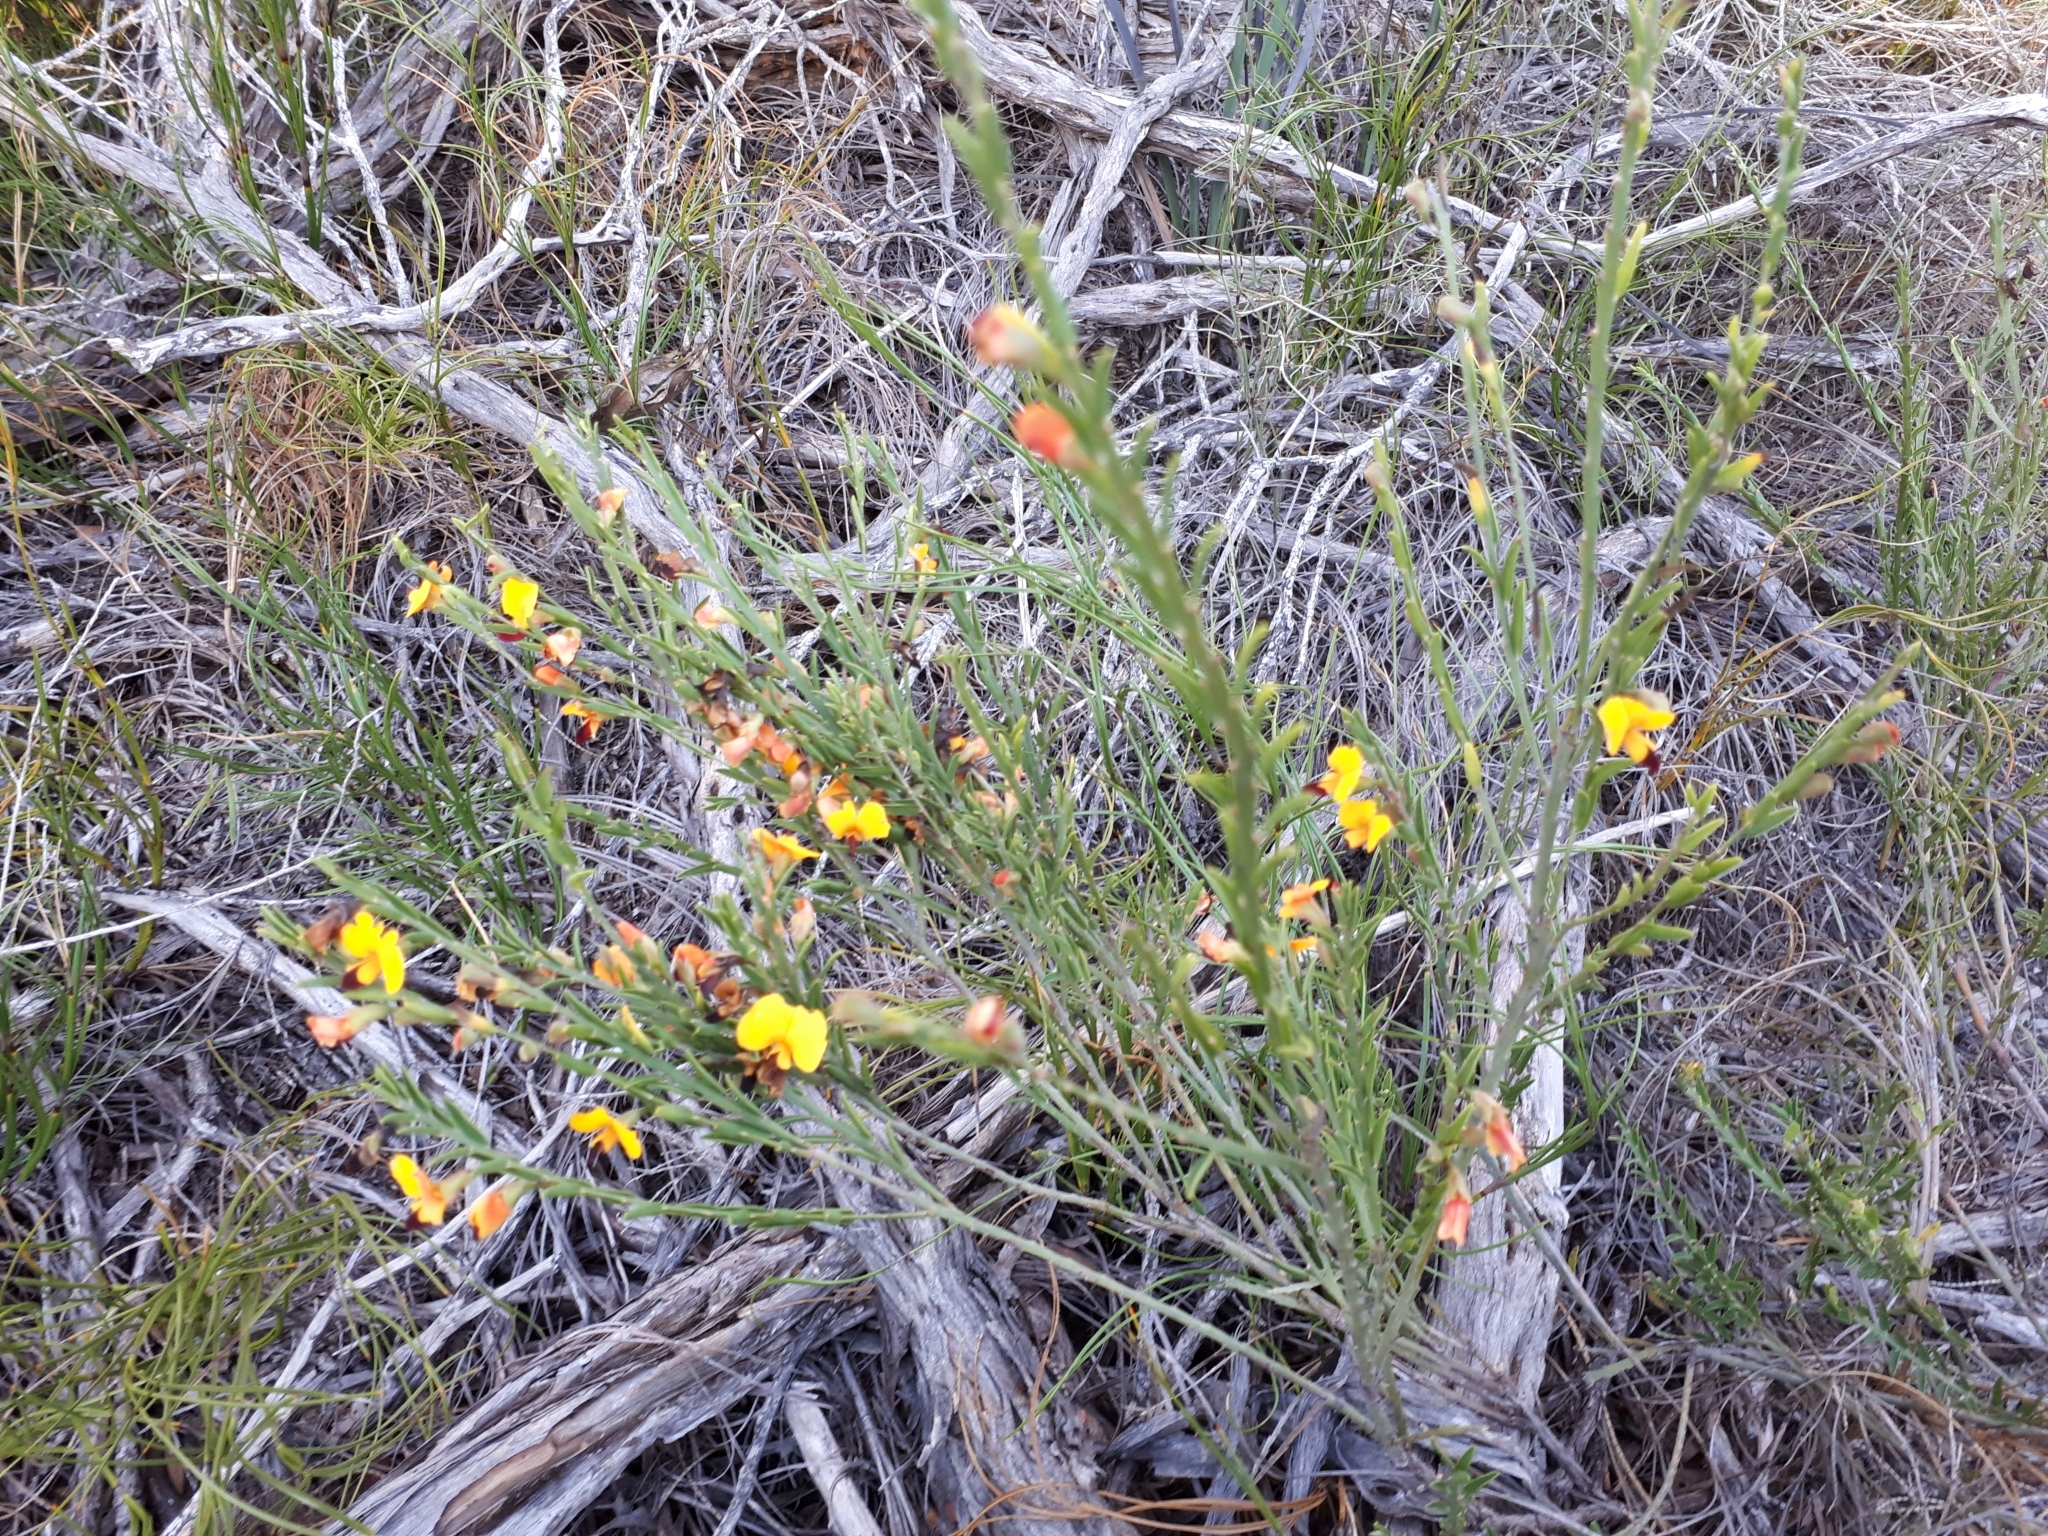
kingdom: Plantae
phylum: Tracheophyta
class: Magnoliopsida
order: Fabales
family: Fabaceae
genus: Bossiaea
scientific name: Bossiaea heterophylla
